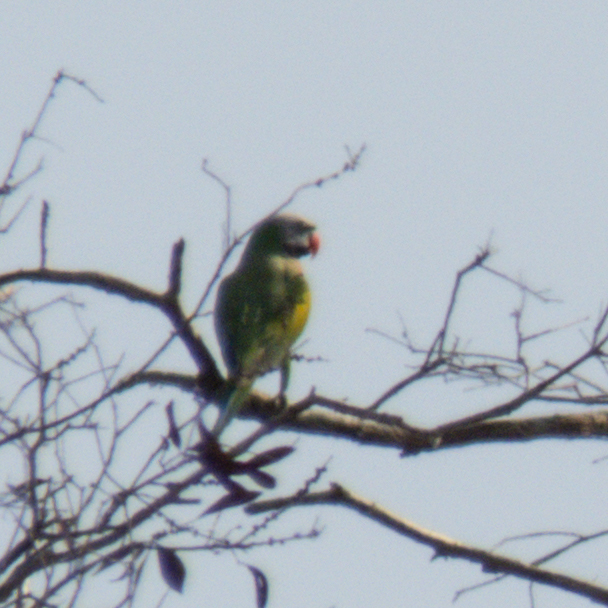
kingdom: Animalia
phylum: Chordata
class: Aves
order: Psittaciformes
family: Psittacidae
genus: Psittacula
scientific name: Psittacula alexandri
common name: Red-breasted parakeet
